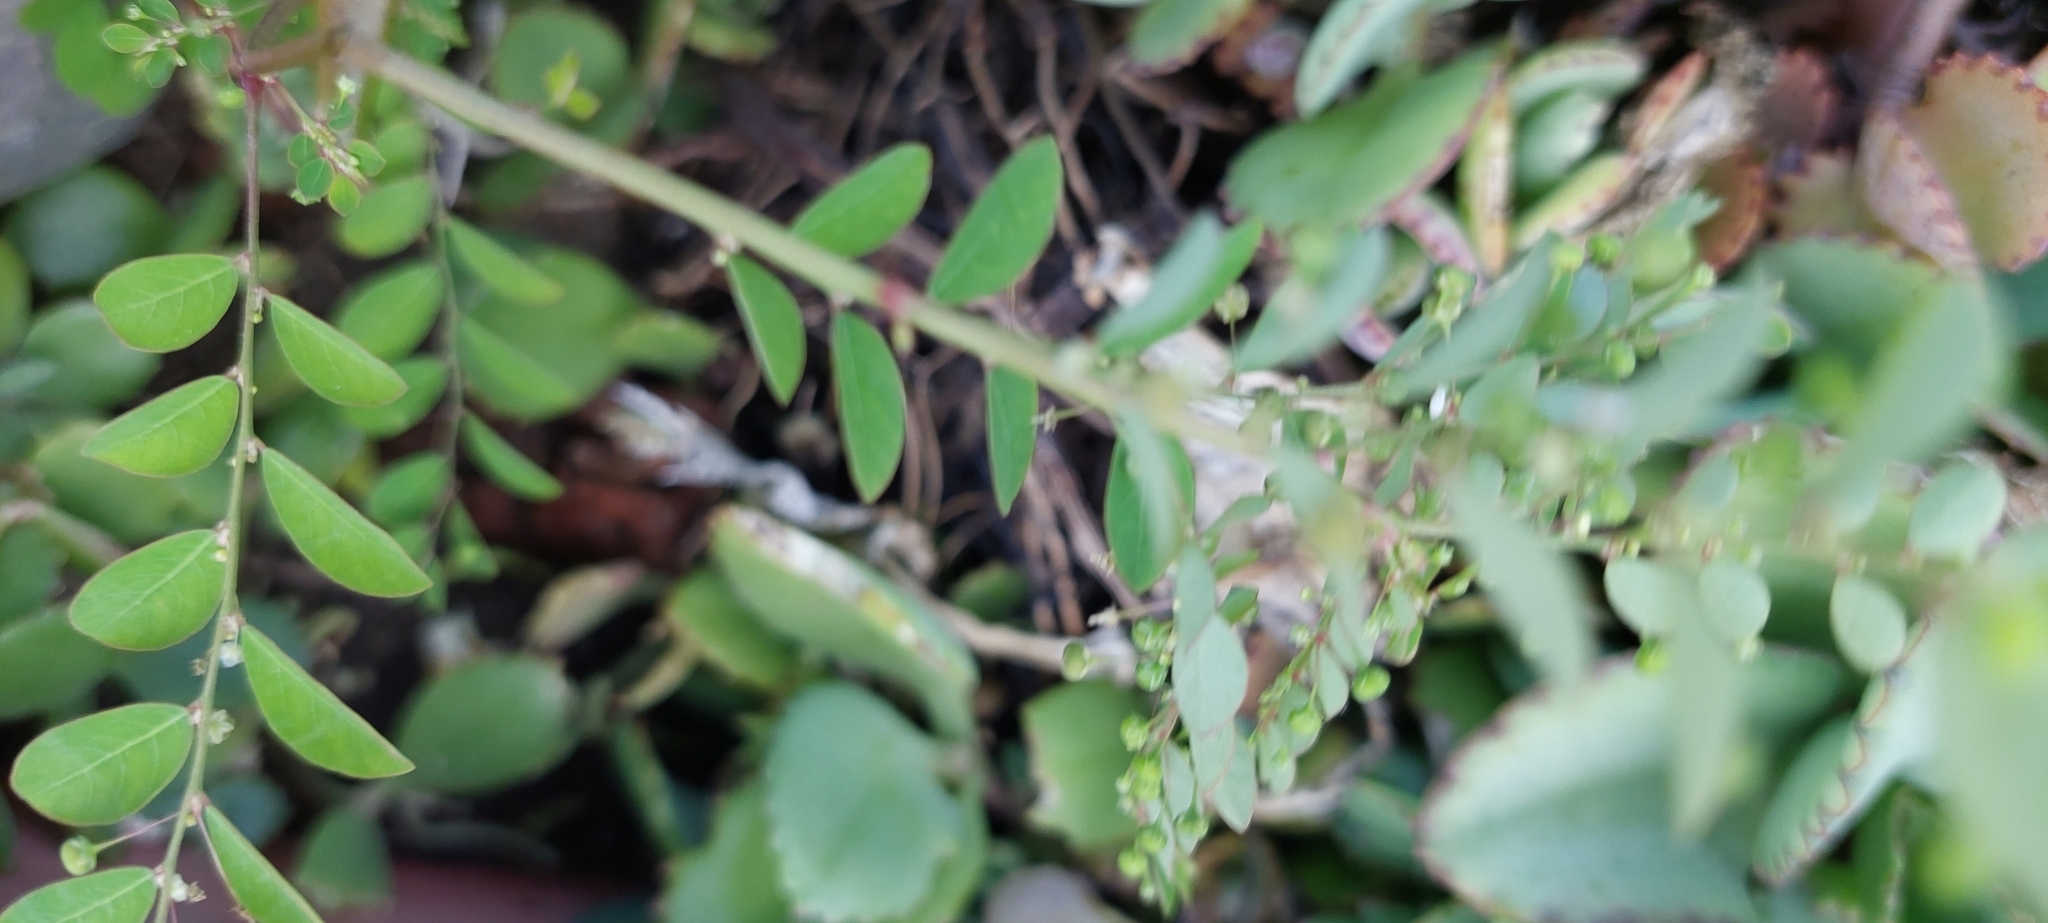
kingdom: Plantae
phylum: Tracheophyta
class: Magnoliopsida
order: Malpighiales
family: Phyllanthaceae
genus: Phyllanthus
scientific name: Phyllanthus tenellus
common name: Mascarene island leaf-flower
